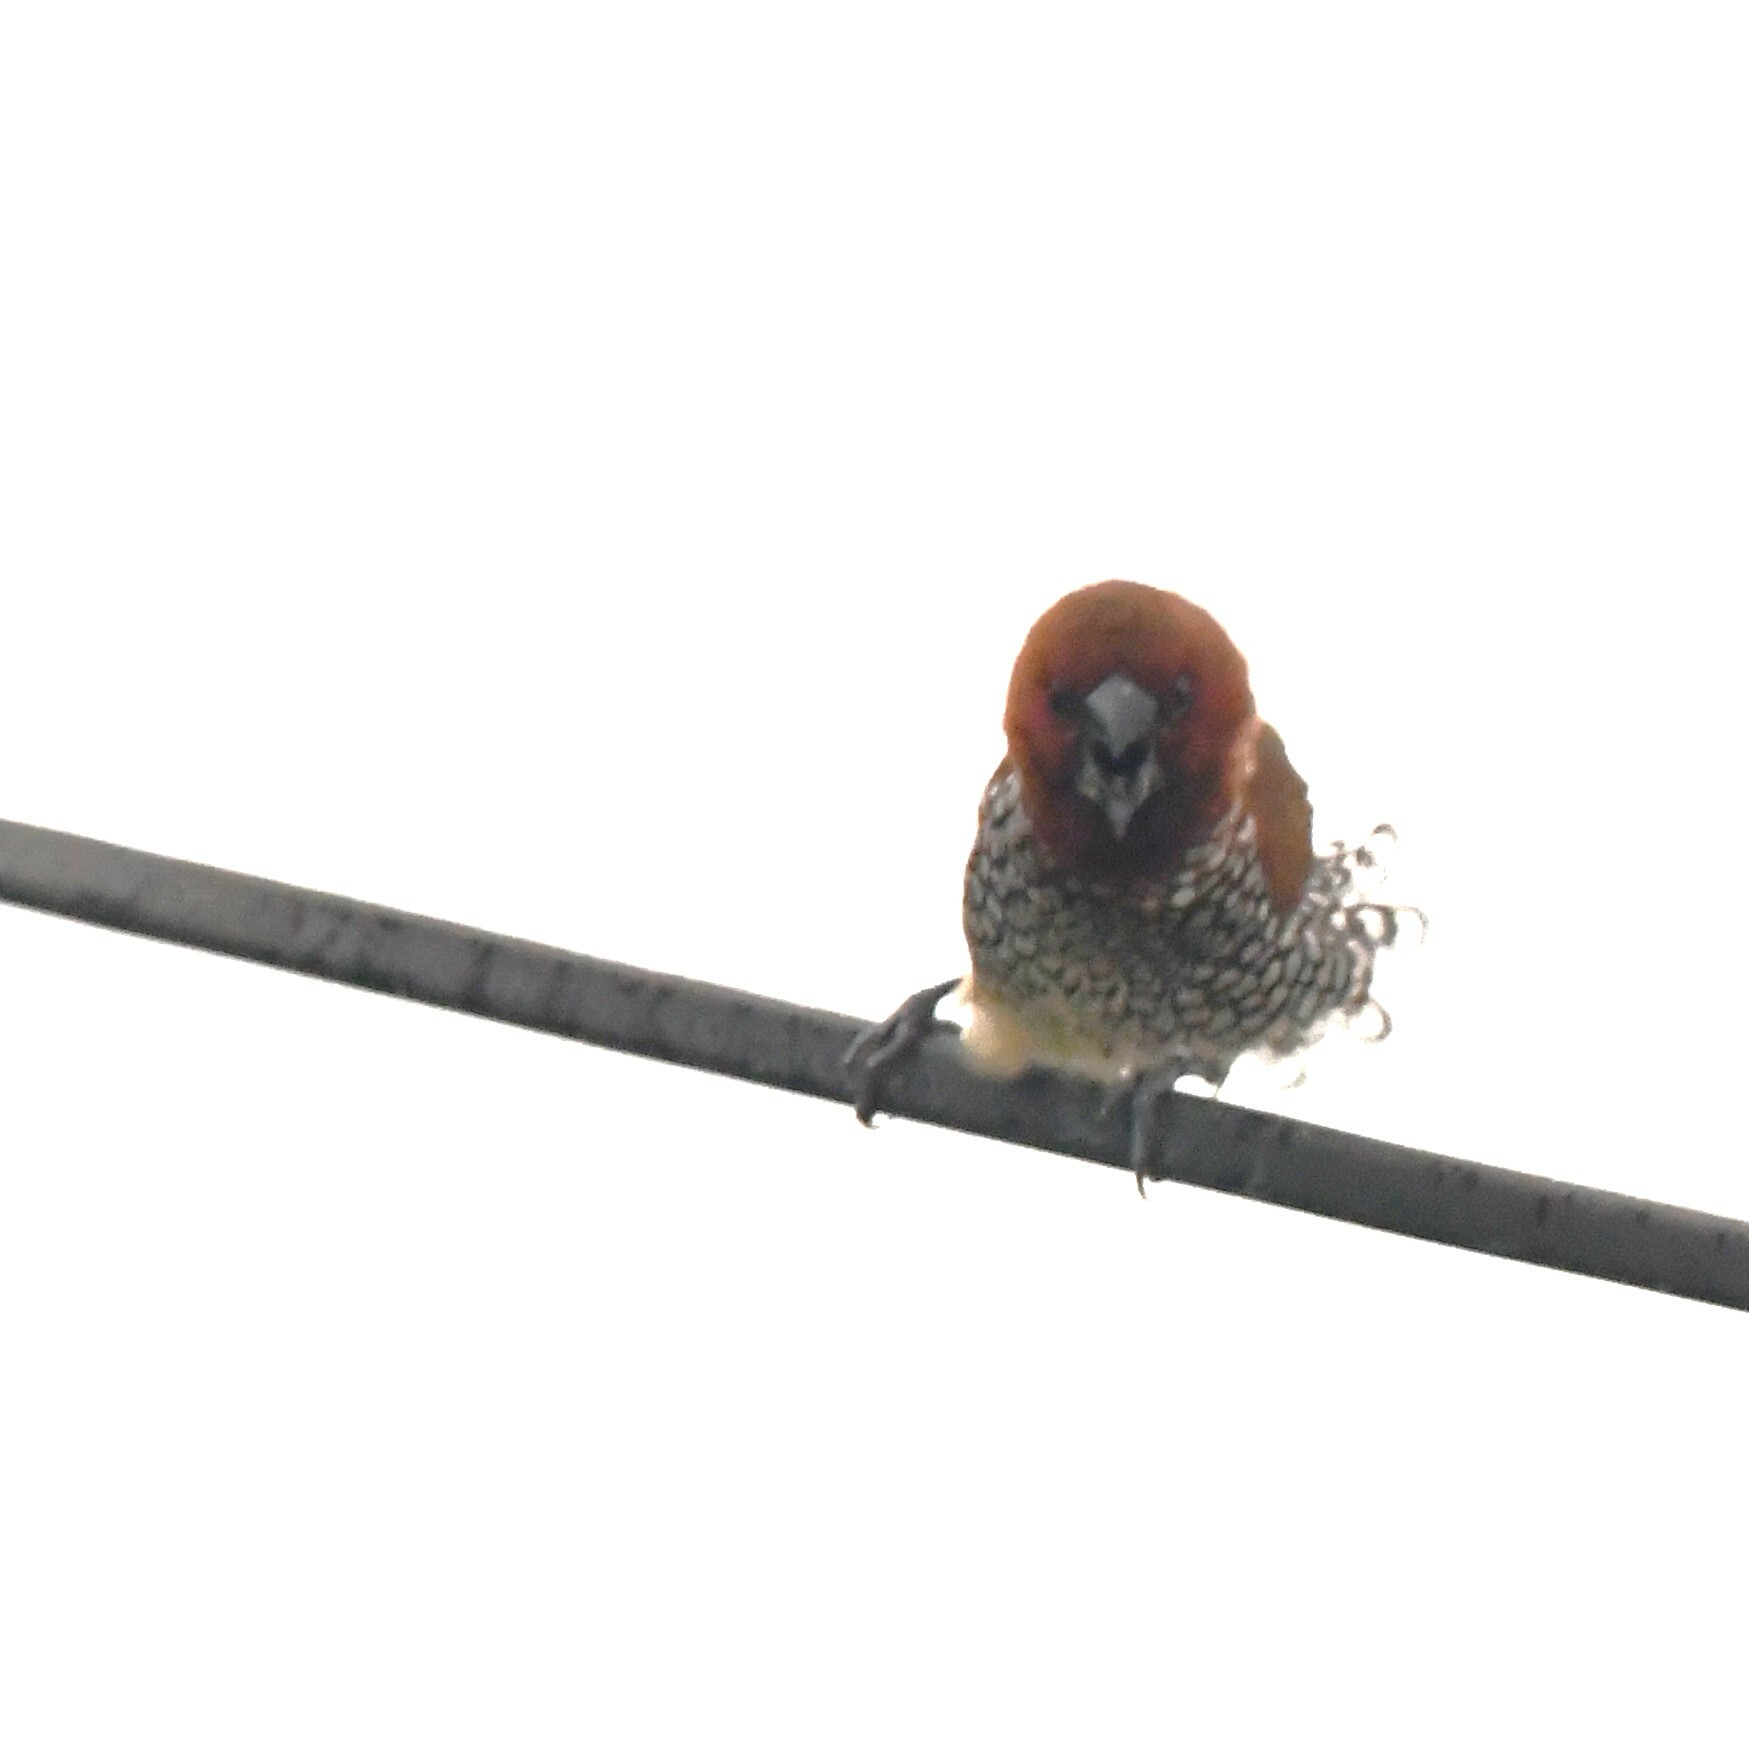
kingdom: Animalia
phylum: Chordata
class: Aves
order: Passeriformes
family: Estrildidae
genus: Lonchura
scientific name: Lonchura punctulata
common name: Scaly-breasted munia
